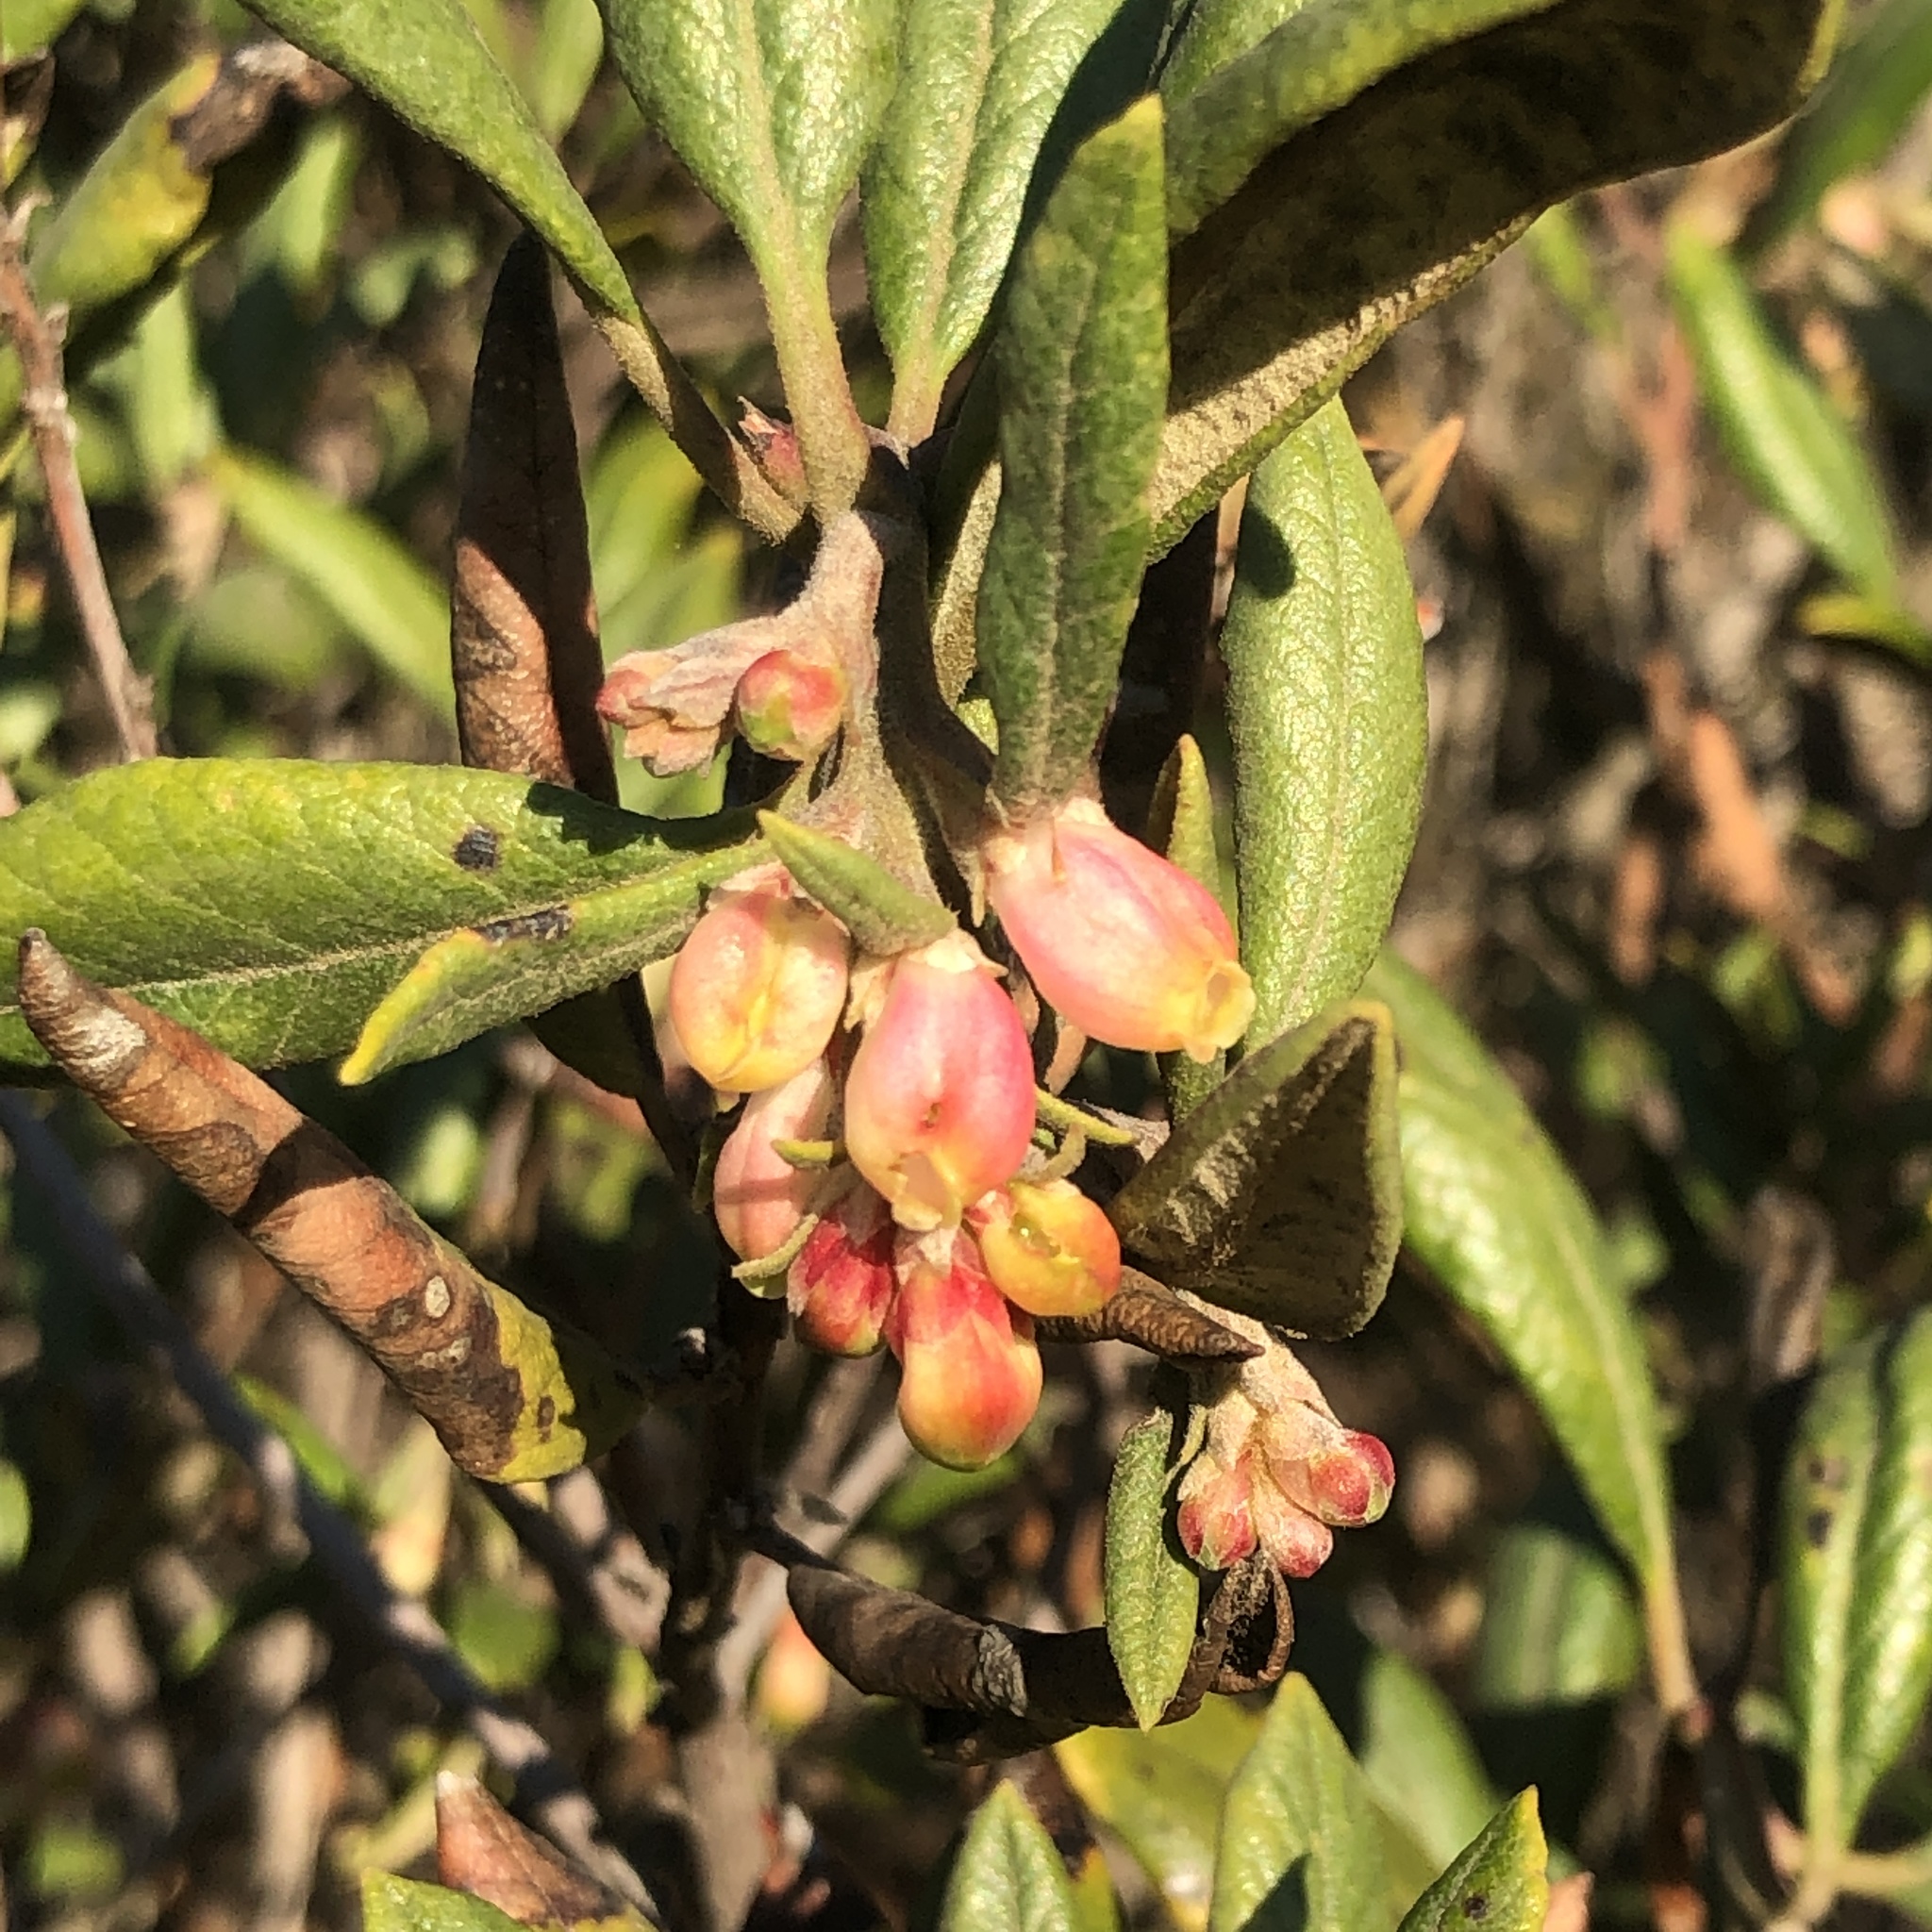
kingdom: Plantae
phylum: Tracheophyta
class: Magnoliopsida
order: Ericales
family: Ericaceae
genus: Arctostaphylos
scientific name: Arctostaphylos bicolor
